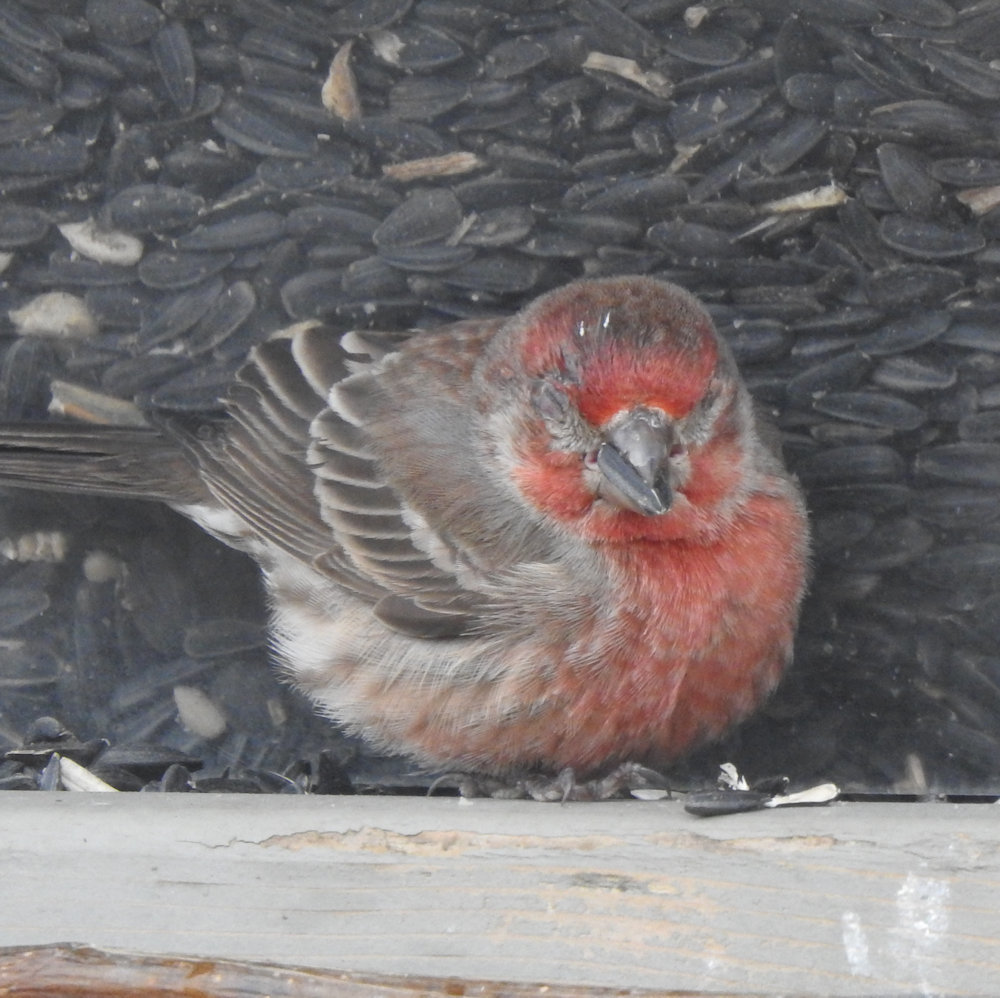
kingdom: Bacteria
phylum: Firmicutes
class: Bacilli
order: Mycoplasmatales
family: Mycoplasmataceae
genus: Mycoplasma
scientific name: Mycoplasma gallisepticum
